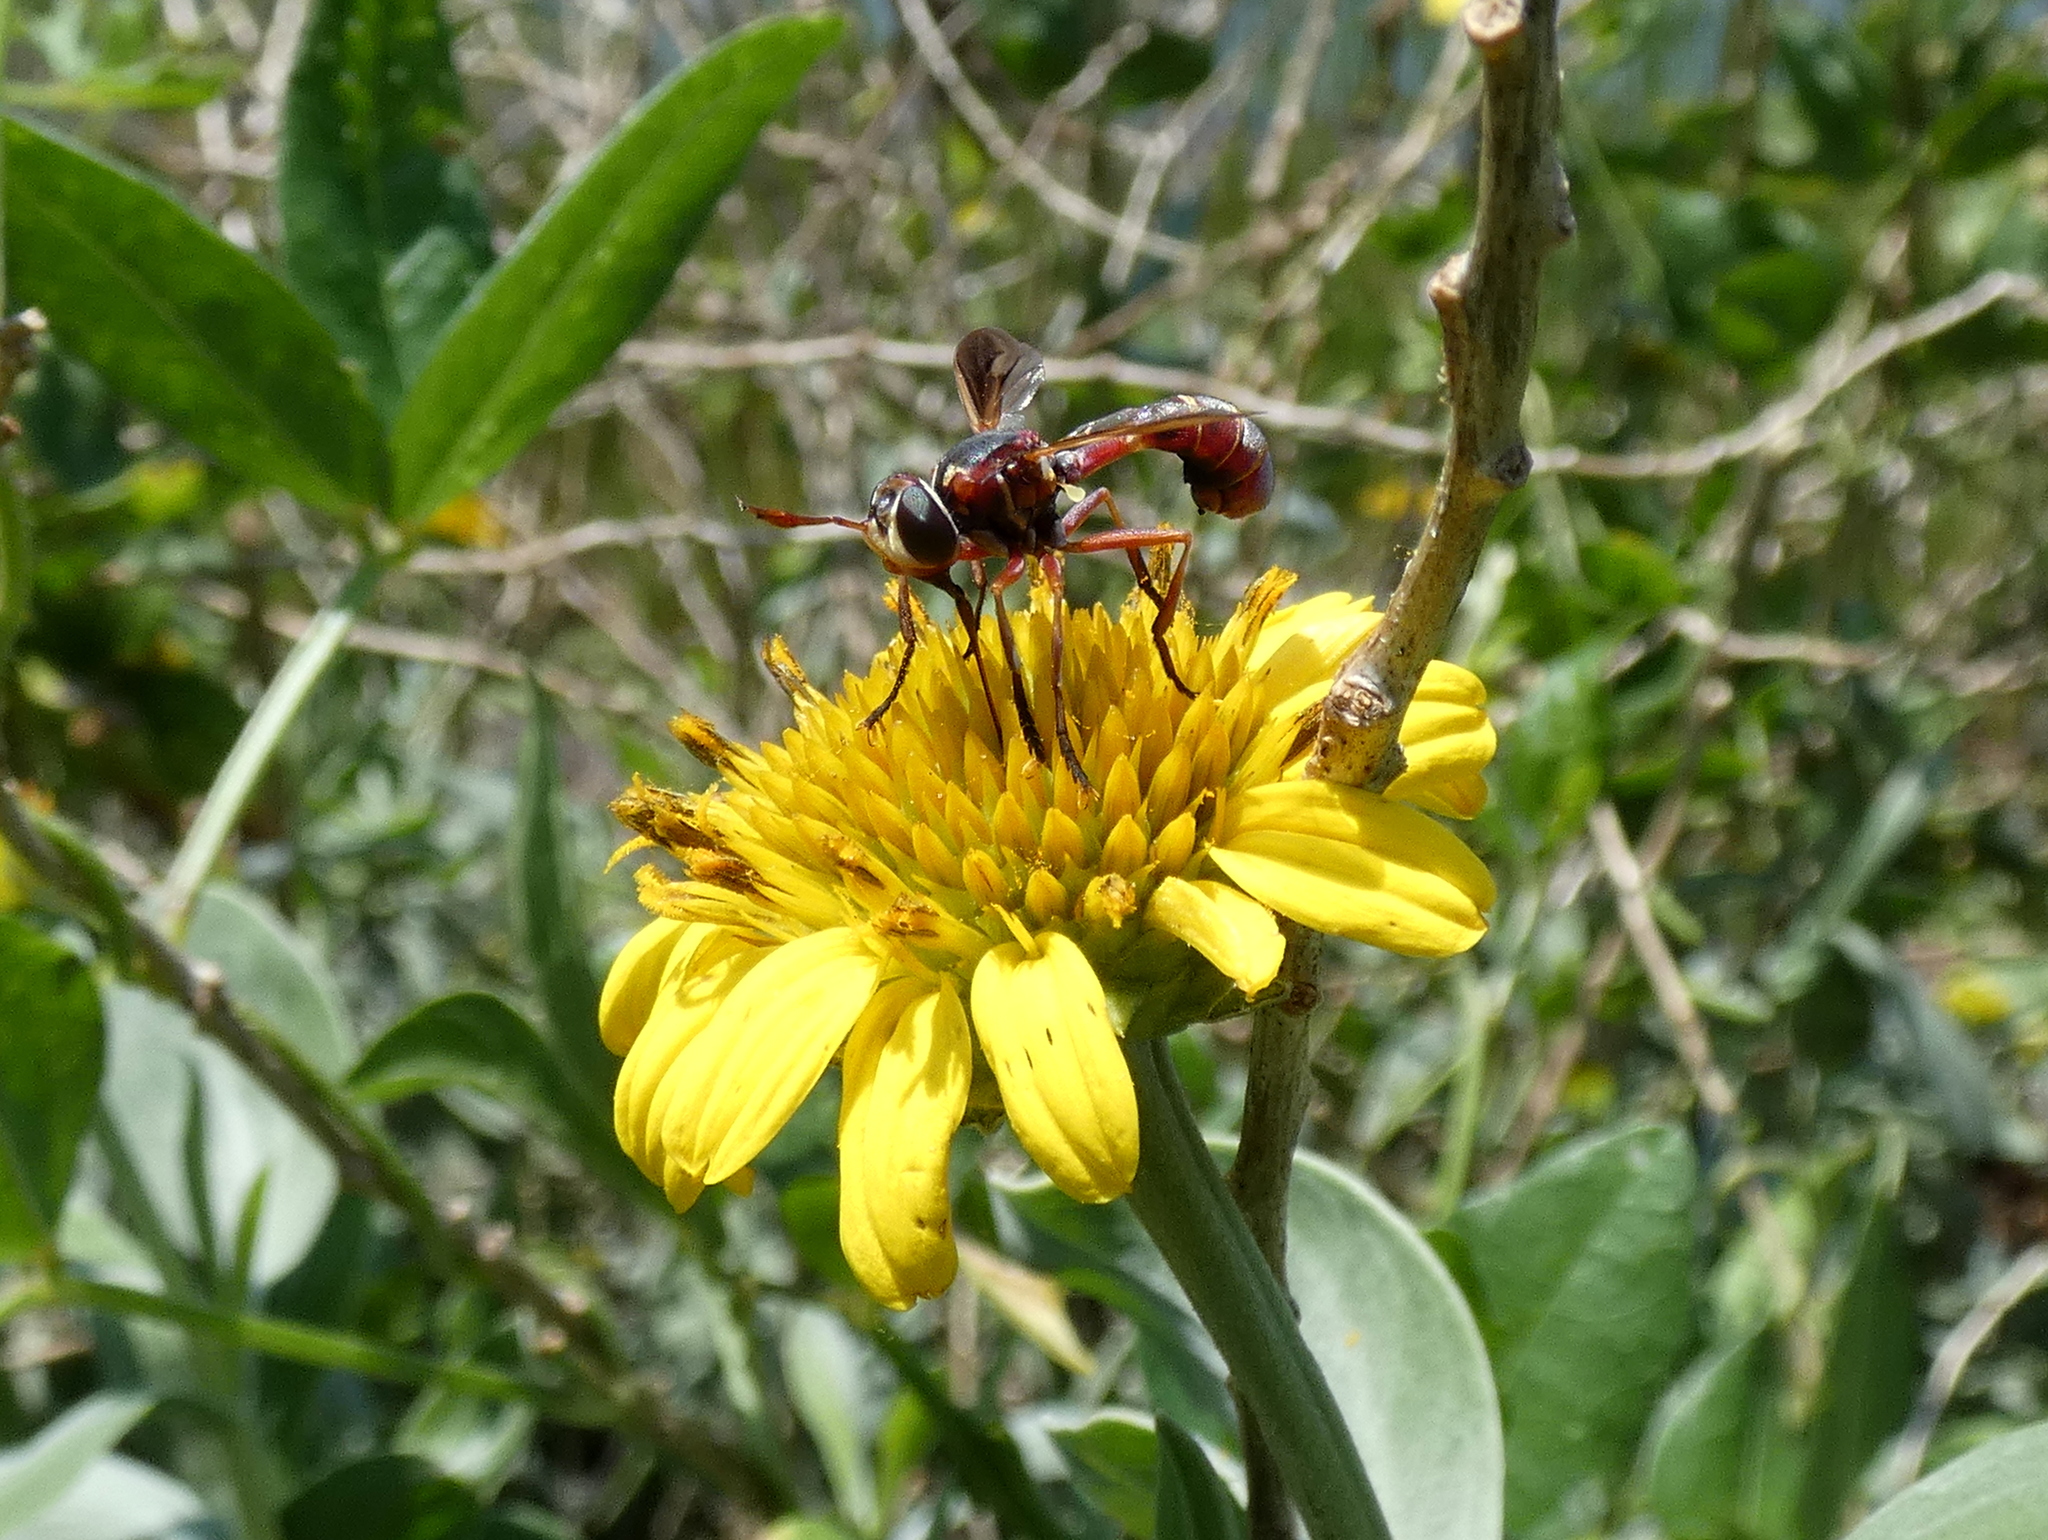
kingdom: Animalia
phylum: Arthropoda
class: Insecta
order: Diptera
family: Conopidae
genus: Physoconops
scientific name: Physoconops excisus
